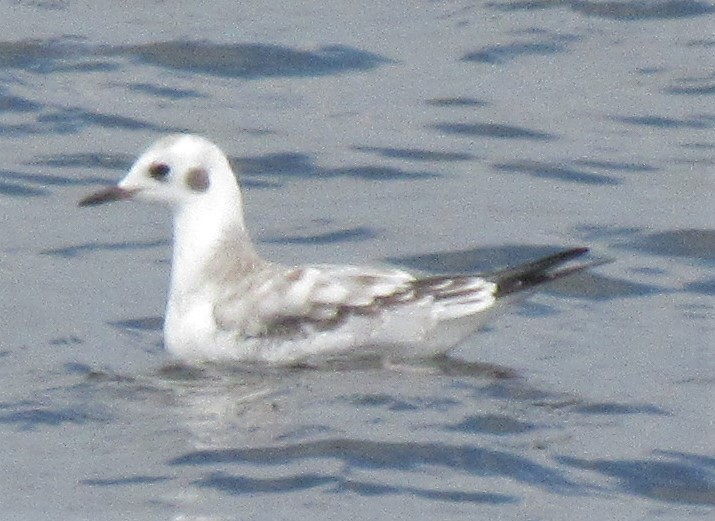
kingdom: Animalia
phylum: Chordata
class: Aves
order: Charadriiformes
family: Laridae
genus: Chroicocephalus
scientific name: Chroicocephalus philadelphia
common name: Bonaparte's gull
